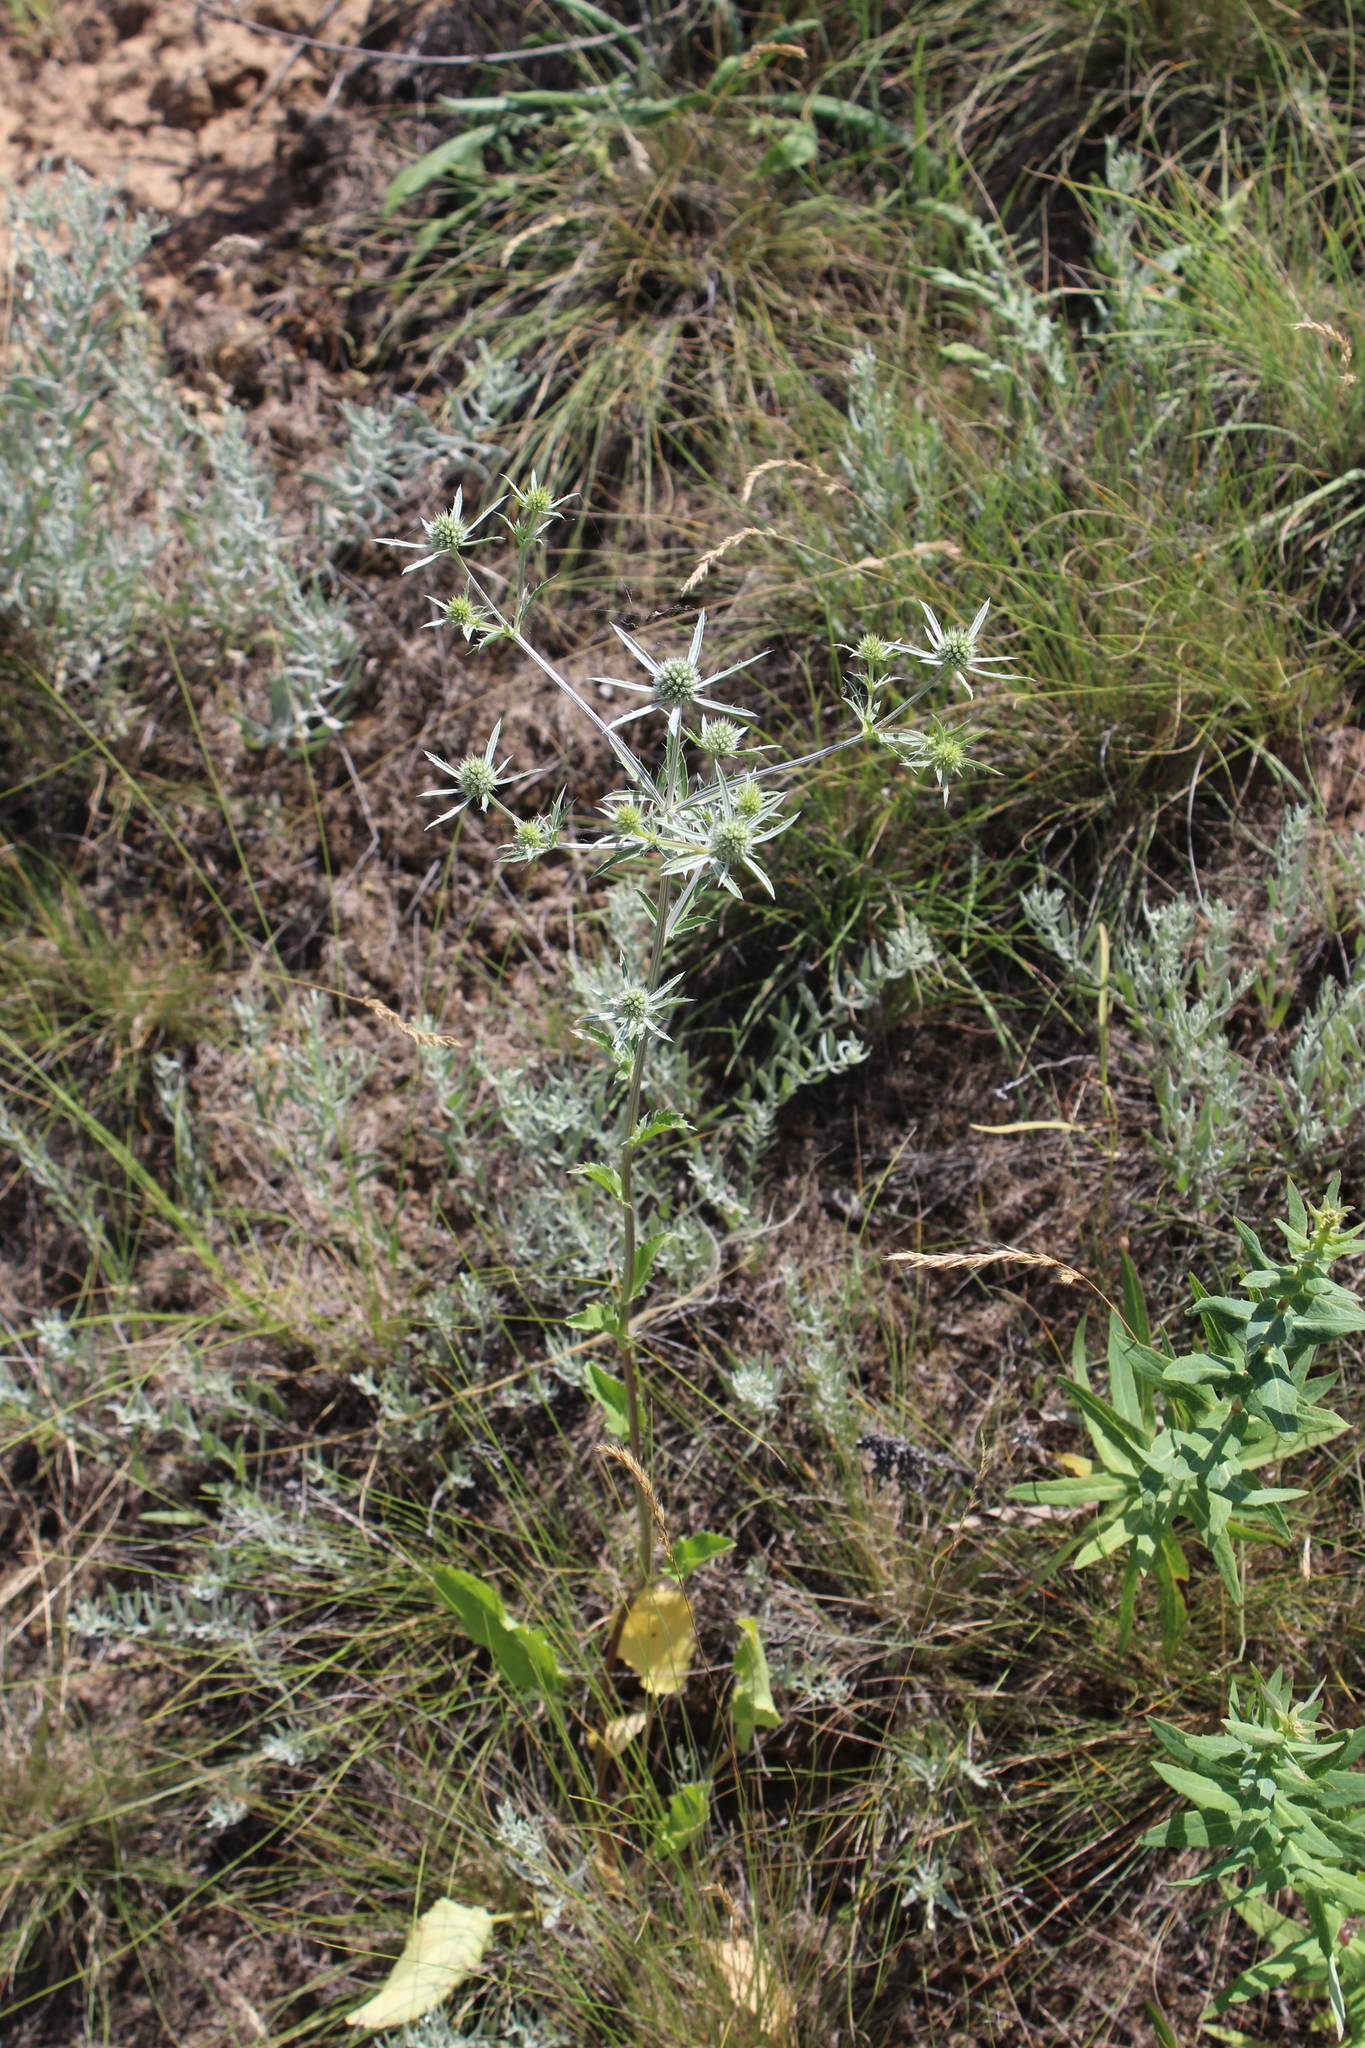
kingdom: Plantae
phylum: Tracheophyta
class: Magnoliopsida
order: Apiales
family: Apiaceae
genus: Eryngium
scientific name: Eryngium planum
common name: Blue eryngo
